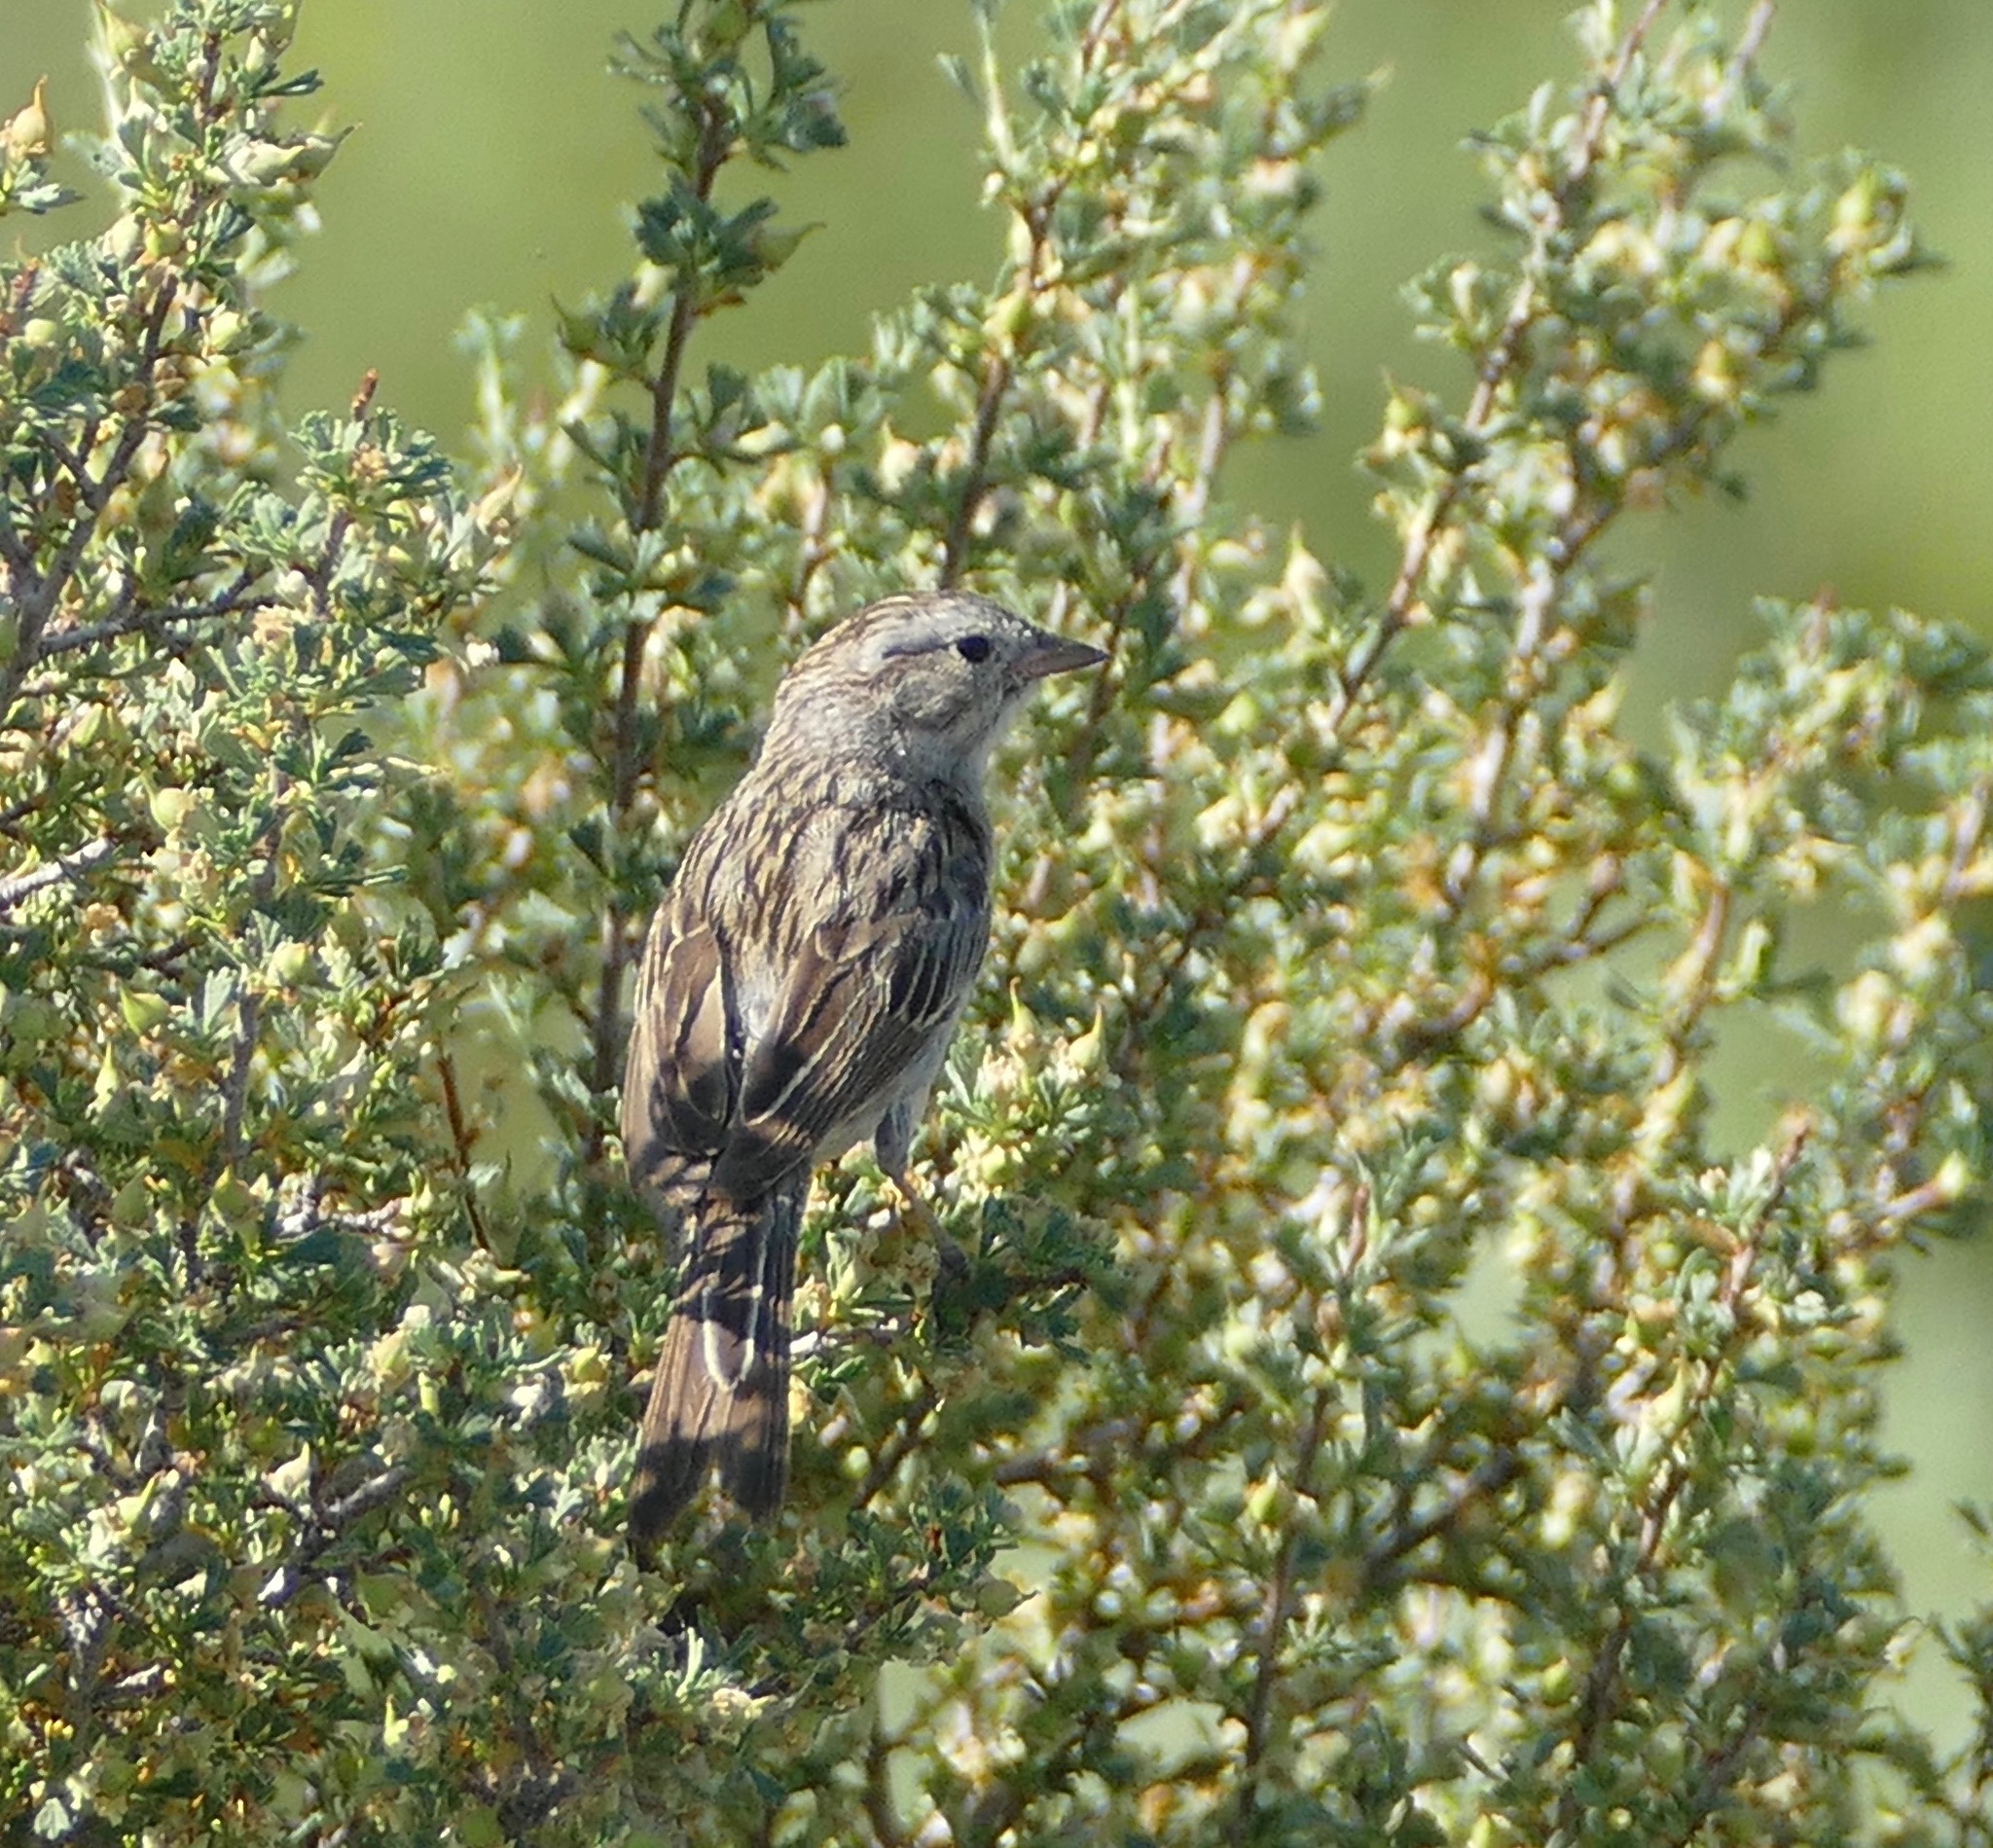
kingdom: Animalia
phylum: Chordata
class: Aves
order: Passeriformes
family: Passerellidae
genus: Spizella
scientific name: Spizella breweri
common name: Brewer's sparrow
